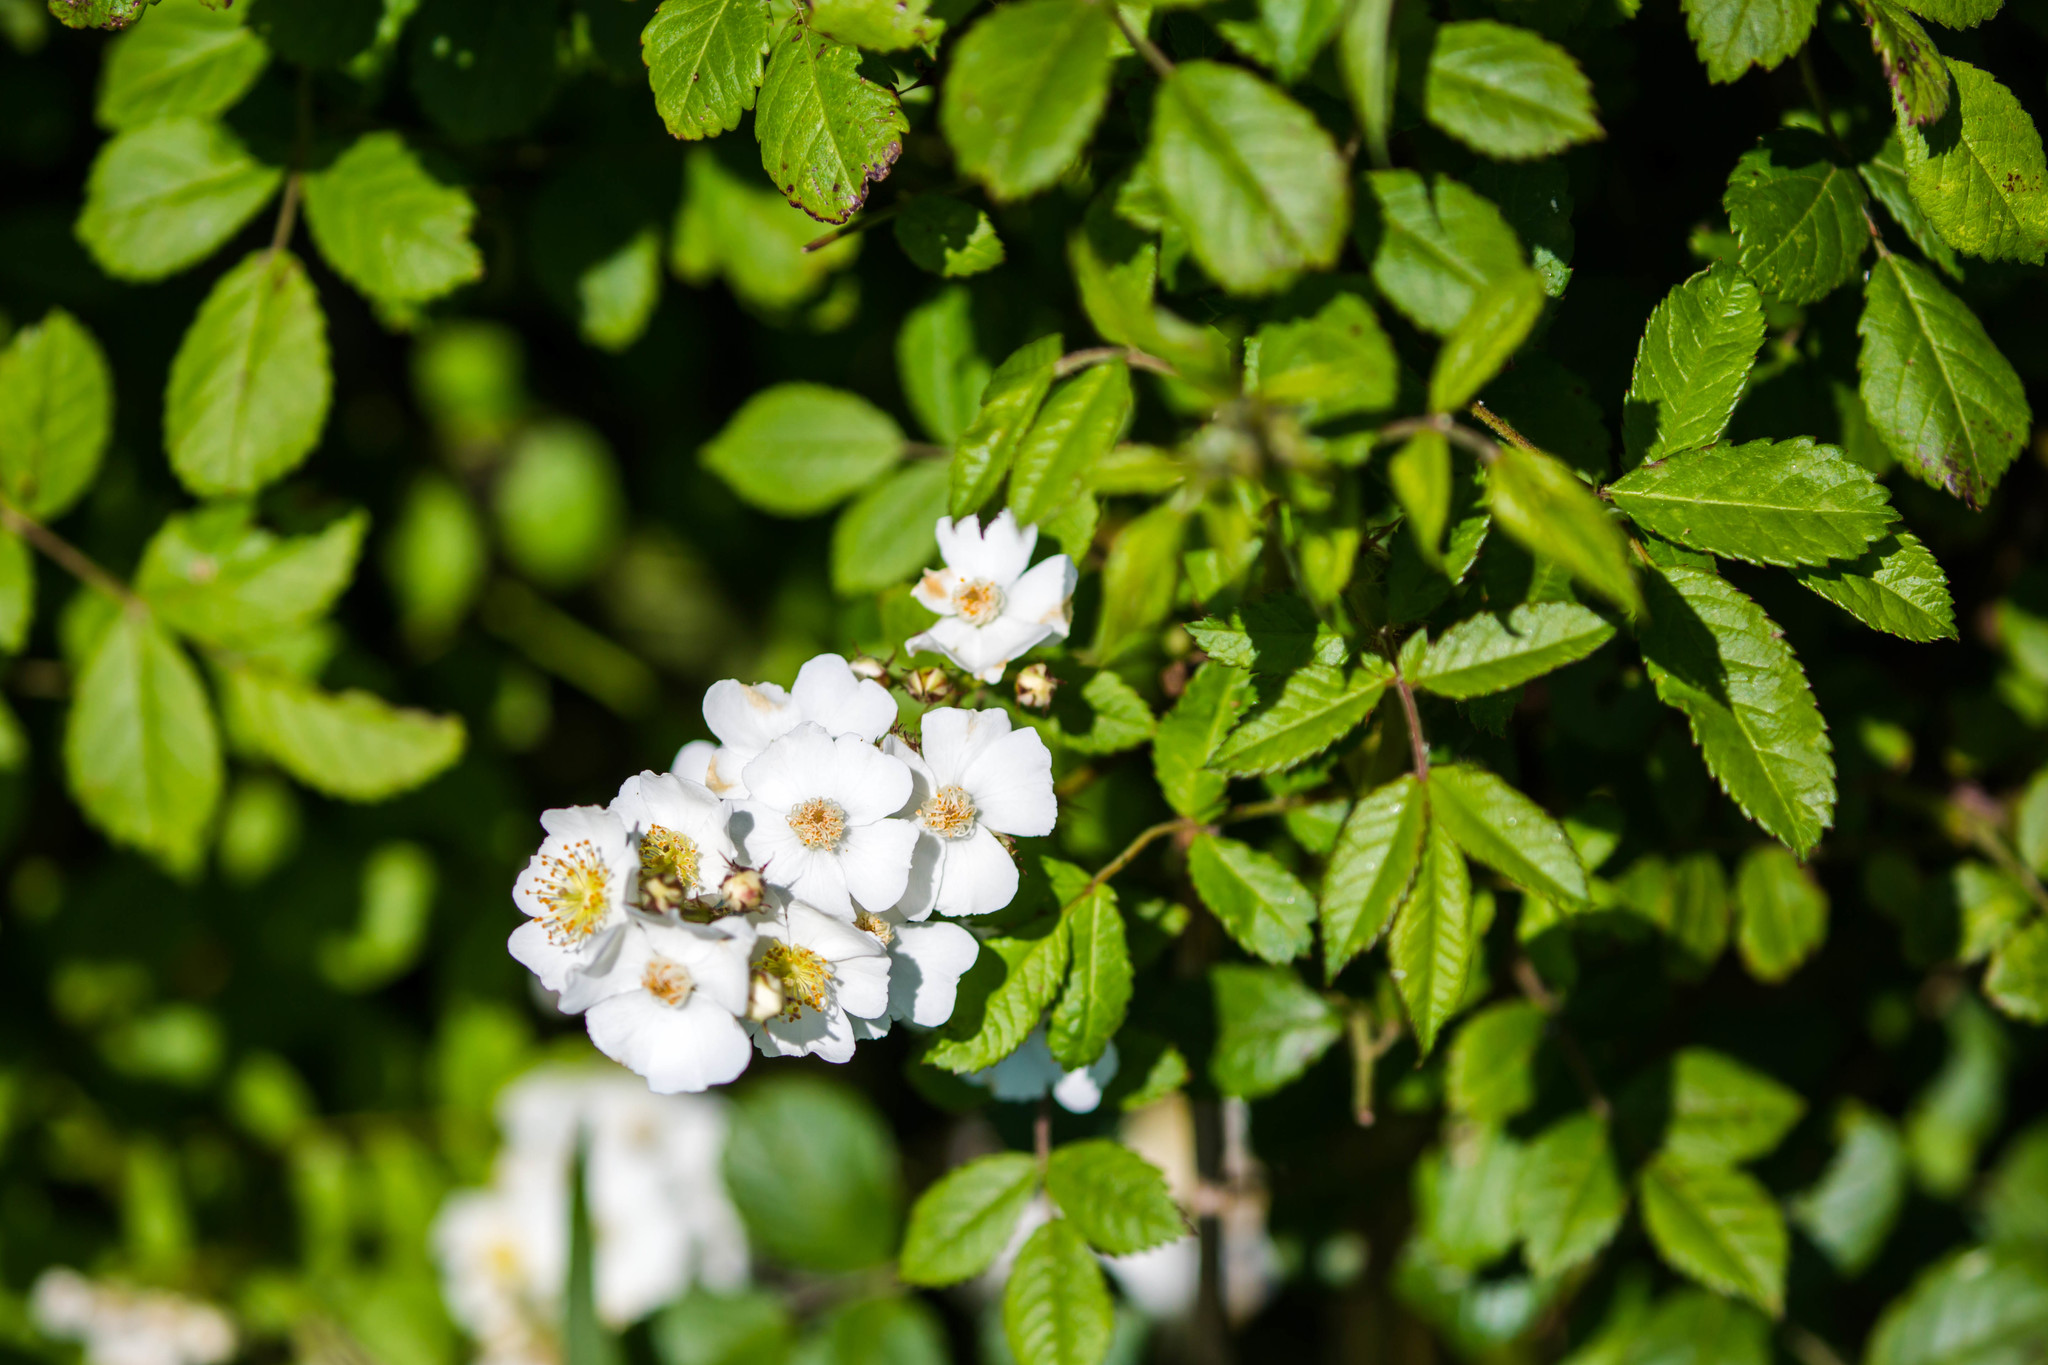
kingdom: Plantae
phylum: Tracheophyta
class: Magnoliopsida
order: Rosales
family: Rosaceae
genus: Rosa
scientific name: Rosa multiflora
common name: Multiflora rose
